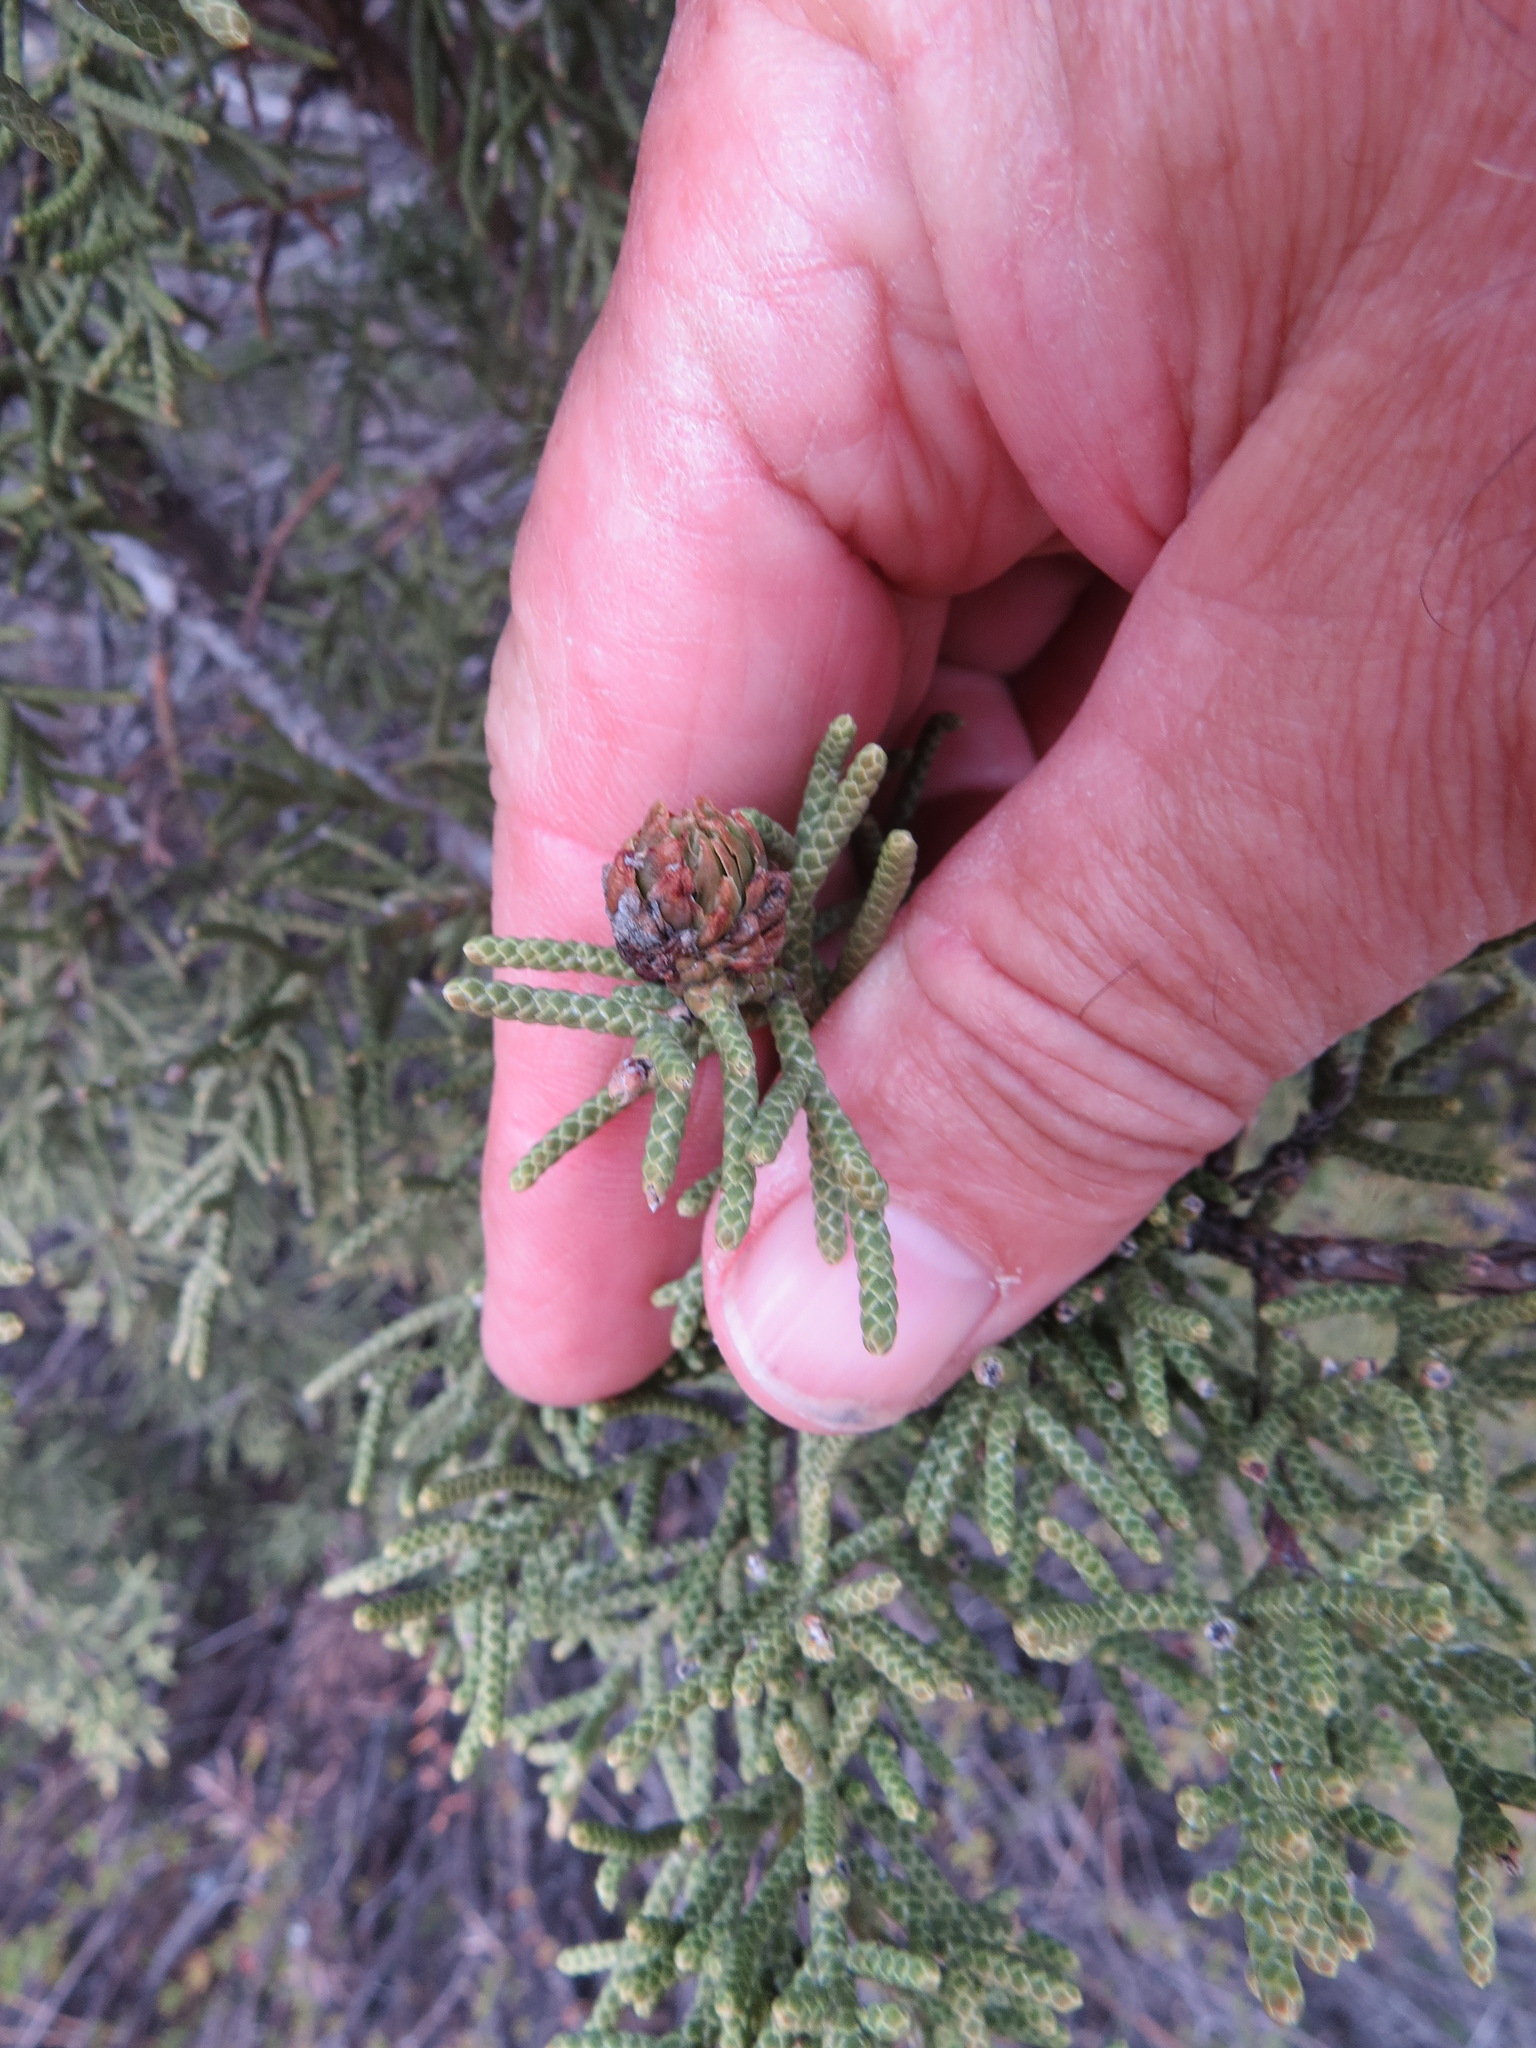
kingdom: Plantae
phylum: Tracheophyta
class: Pinopsida
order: Pinales
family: Cupressaceae
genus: Juniperus
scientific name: Juniperus californica
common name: California juniper
